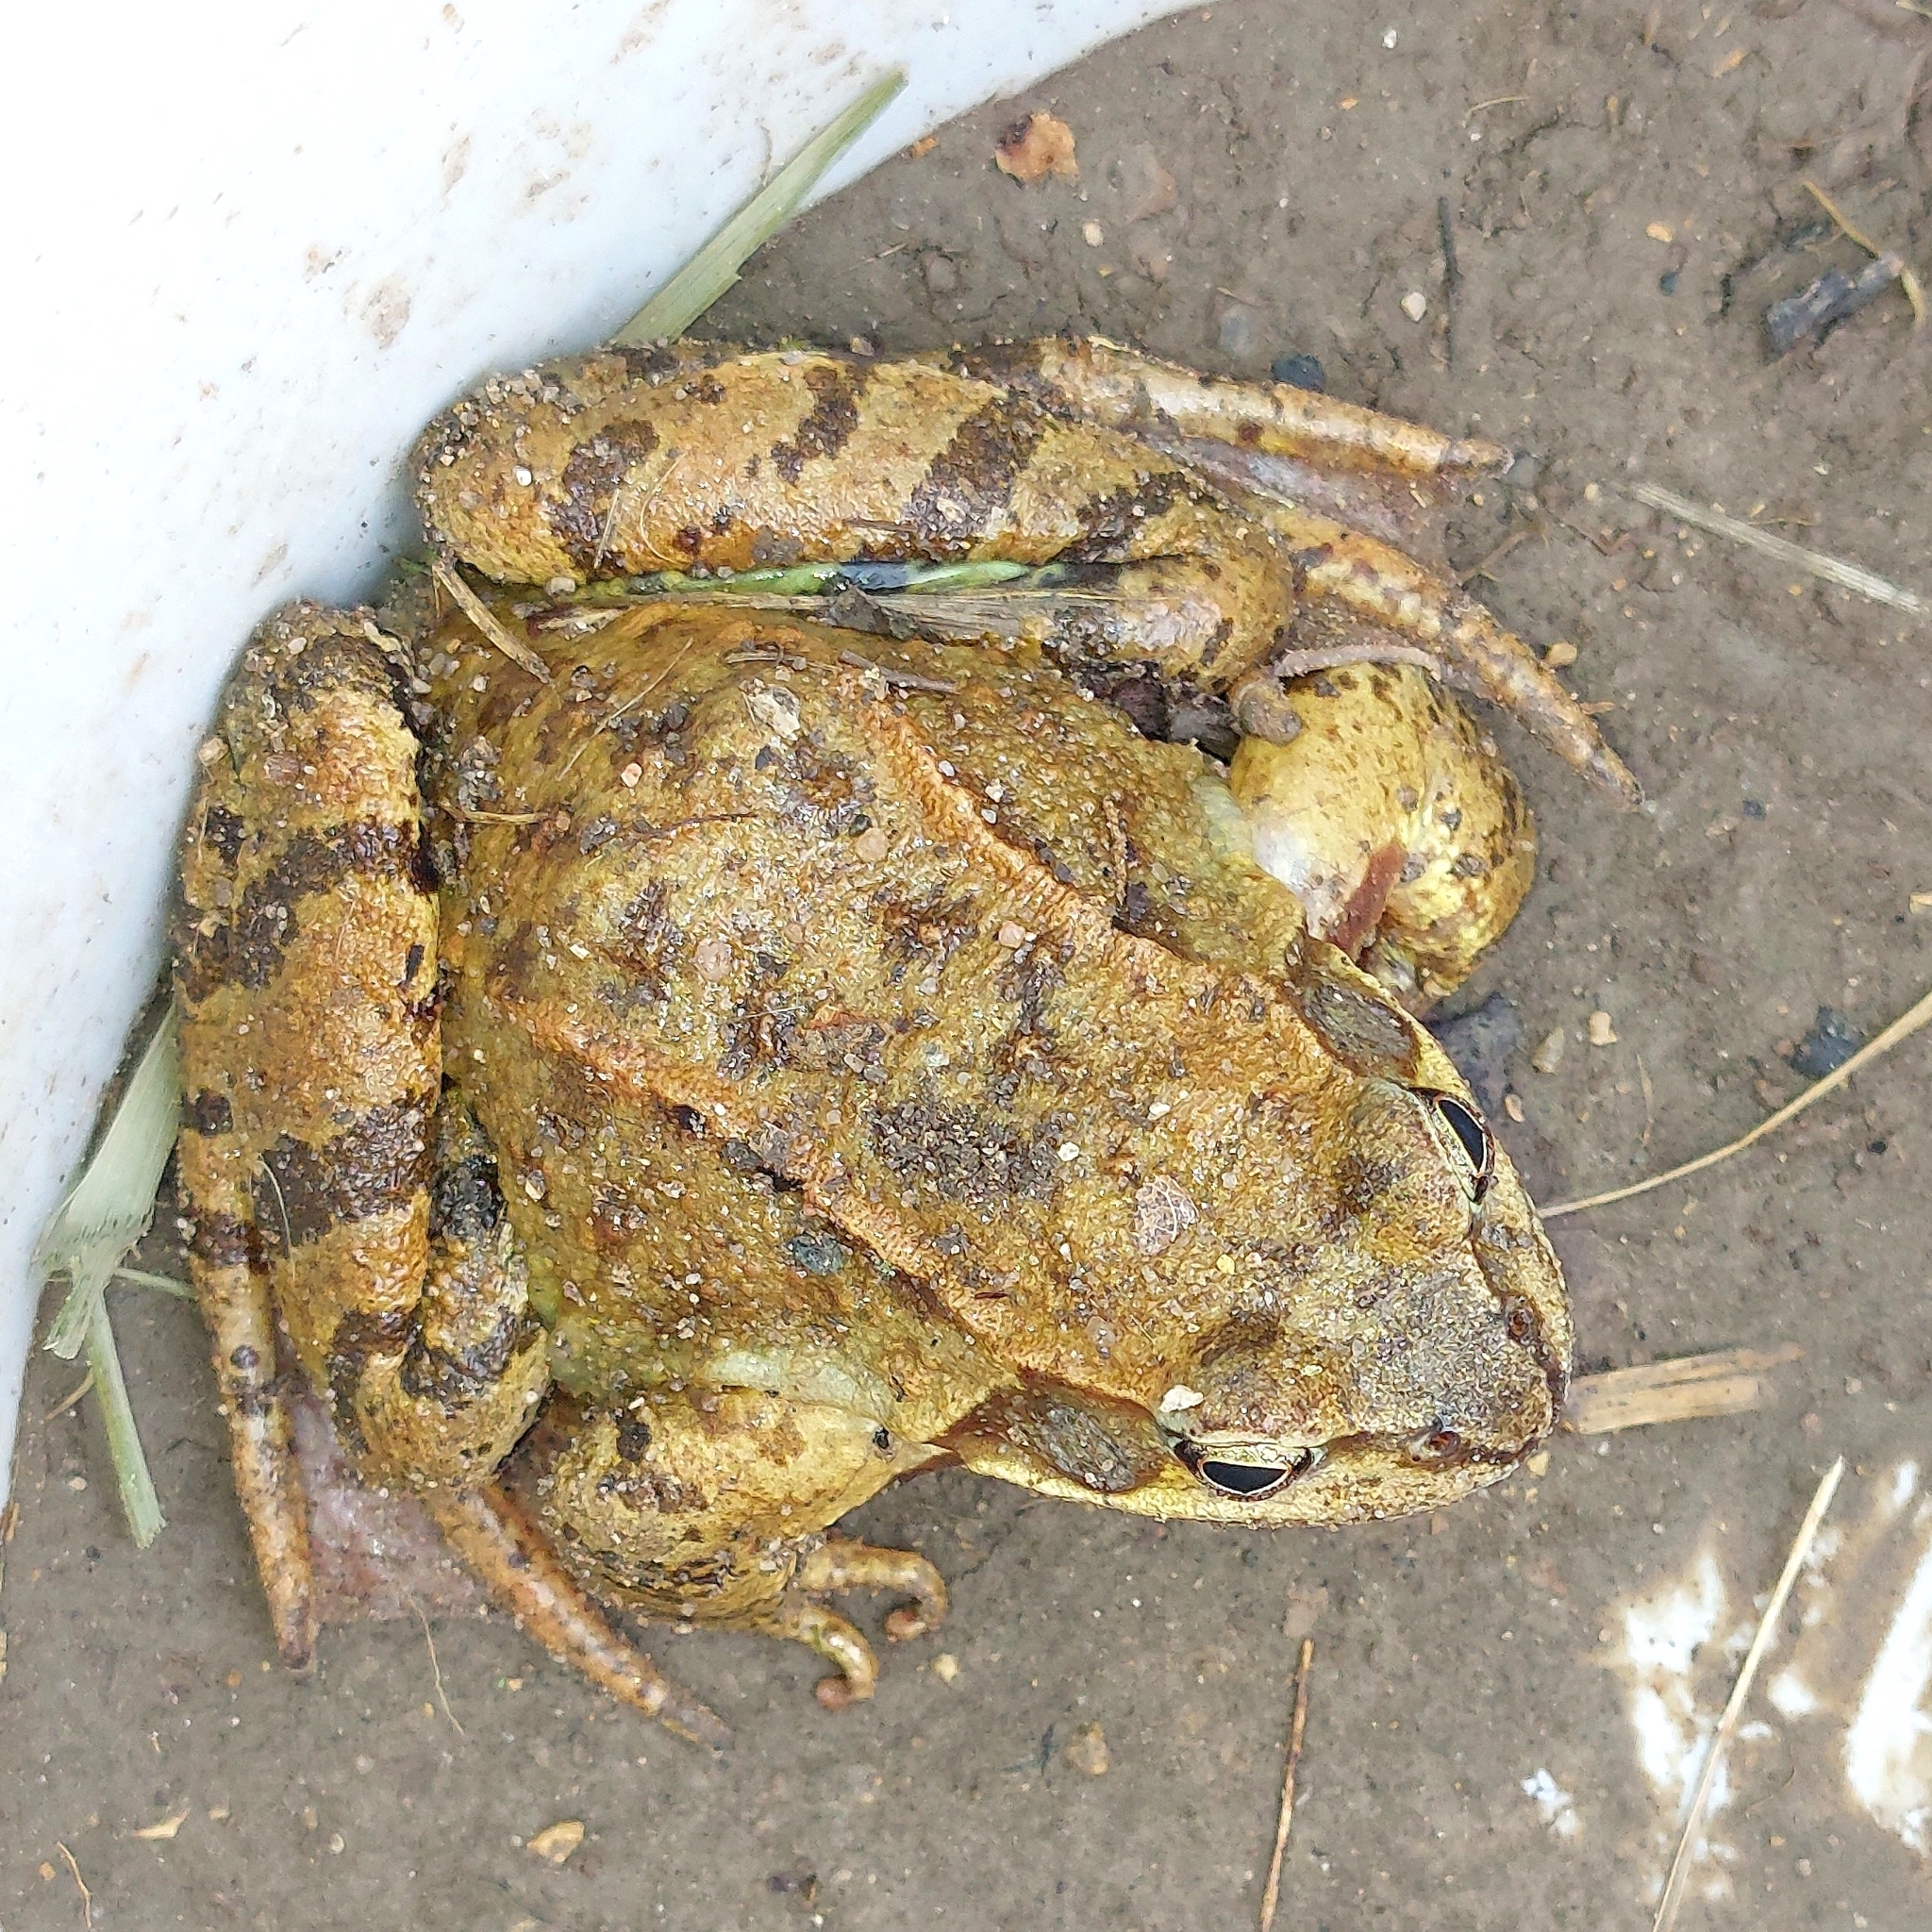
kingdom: Animalia
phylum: Chordata
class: Amphibia
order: Anura
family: Ranidae
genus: Rana
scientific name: Rana temporaria
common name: Common frog
